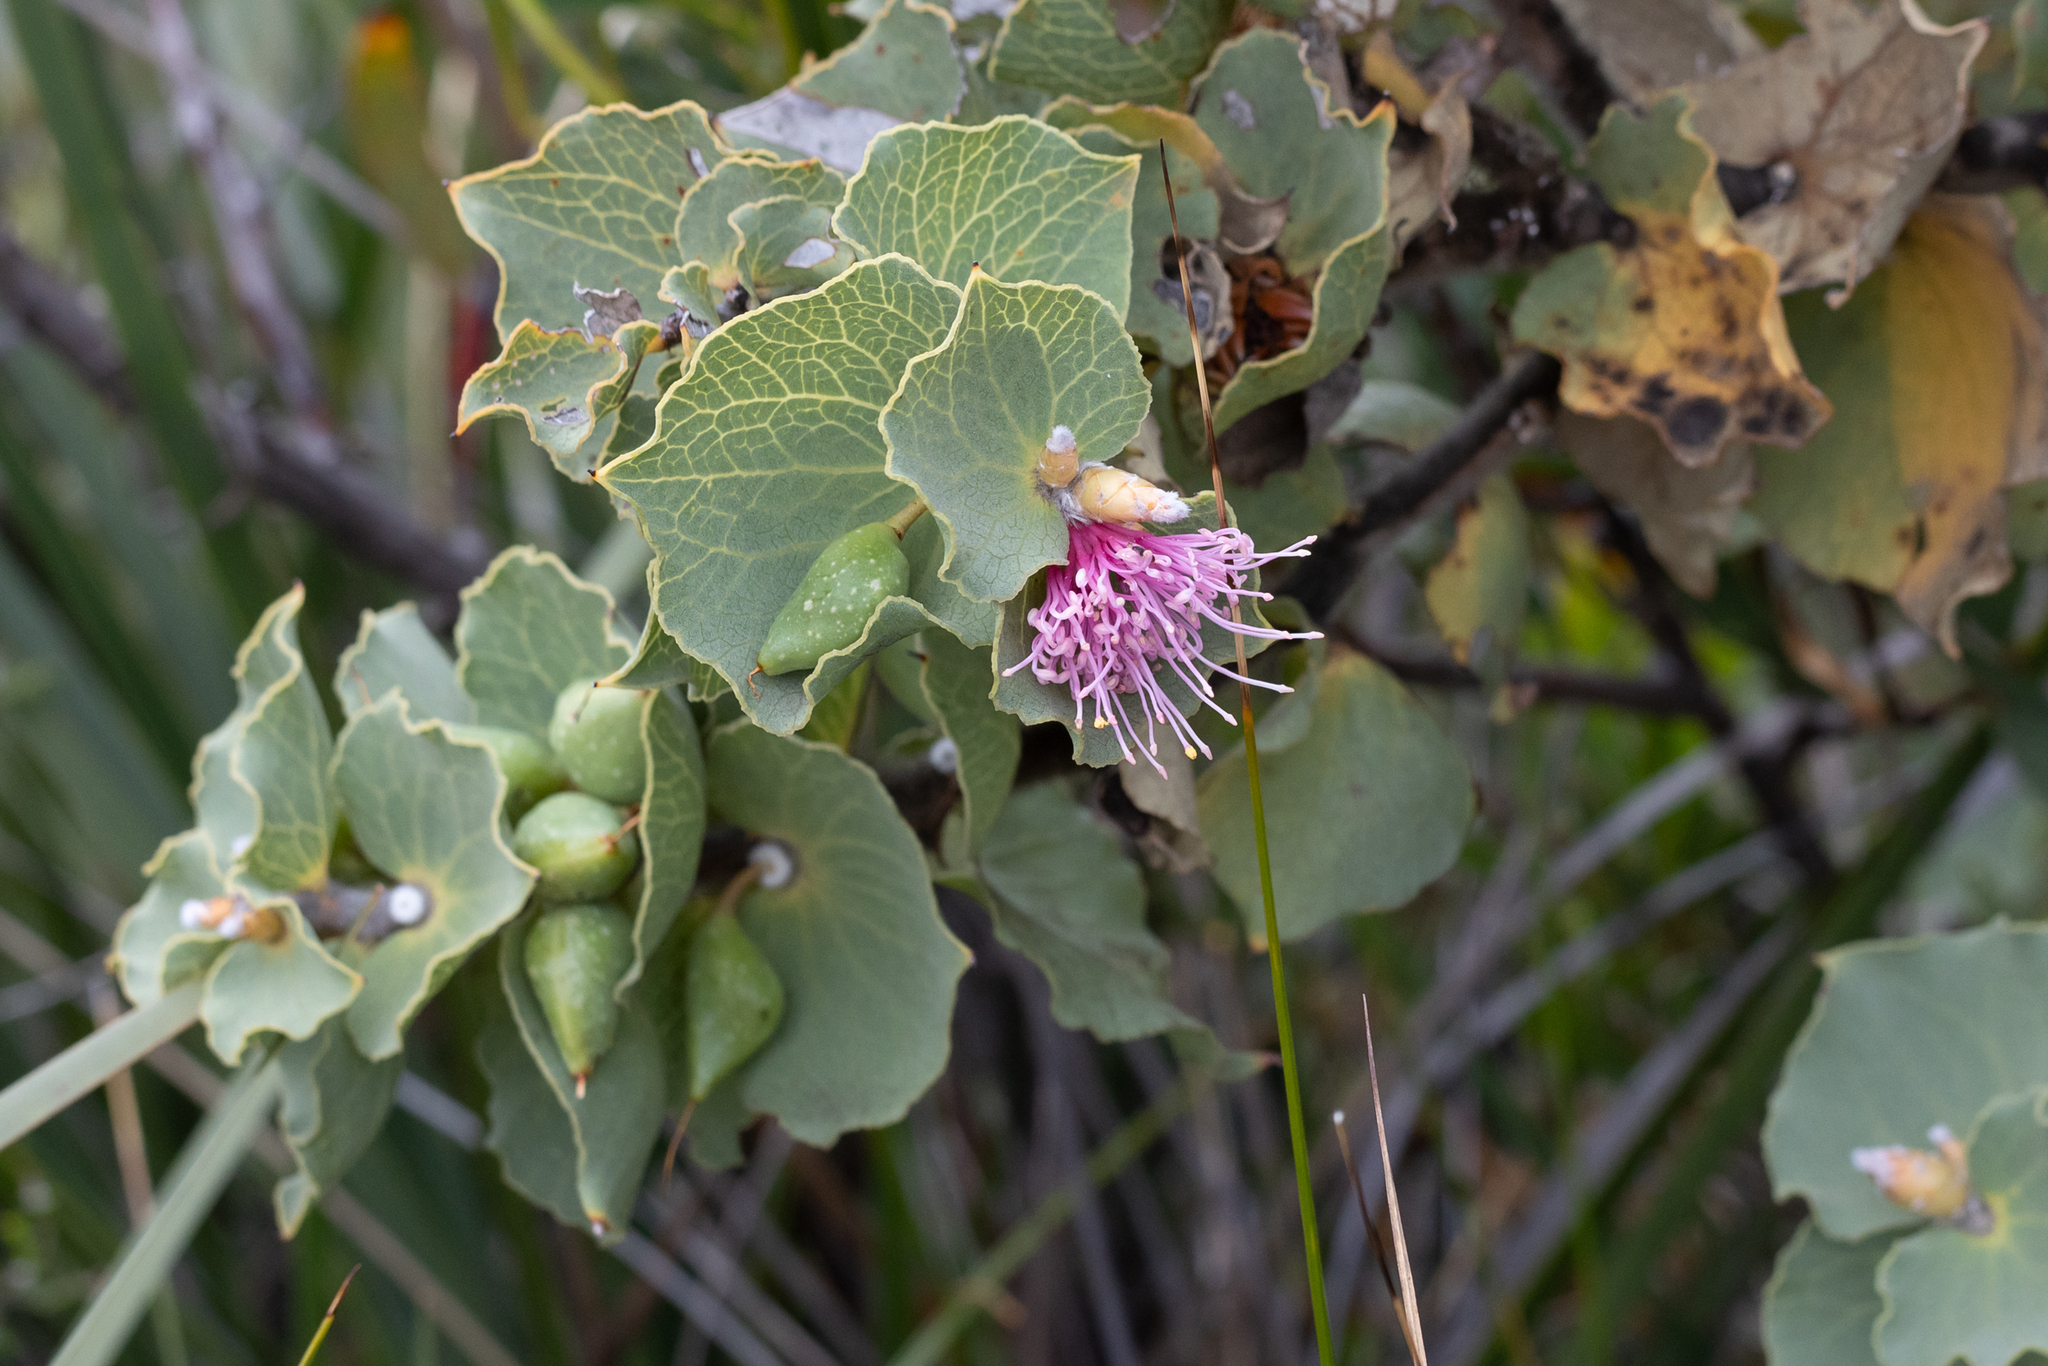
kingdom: Plantae
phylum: Tracheophyta
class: Magnoliopsida
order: Proteales
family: Proteaceae
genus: Hakea
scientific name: Hakea cucullata
